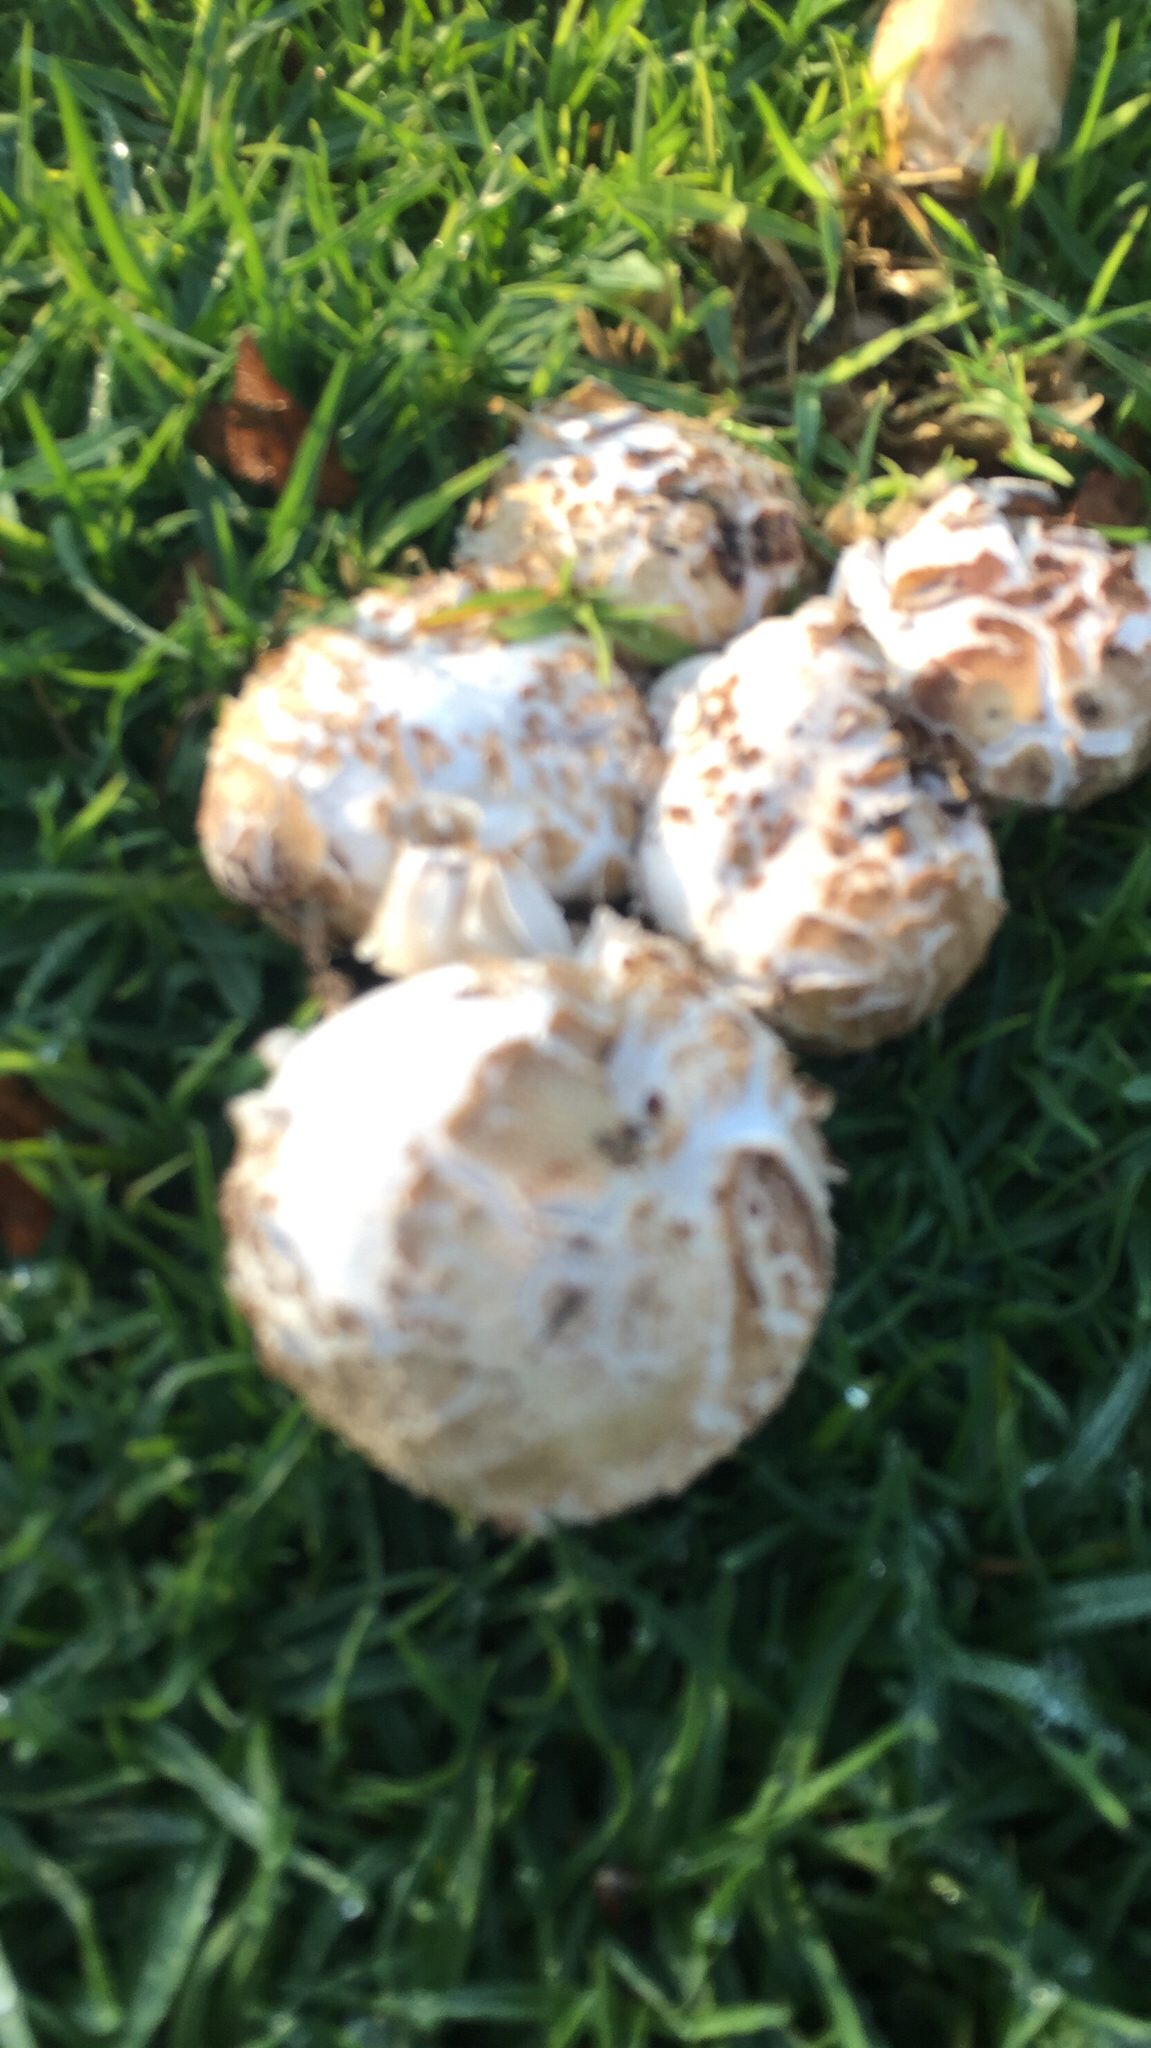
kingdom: Fungi
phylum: Basidiomycota
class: Agaricomycetes
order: Agaricales
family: Agaricaceae
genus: Chlorophyllum
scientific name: Chlorophyllum molybdites
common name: False parasol
